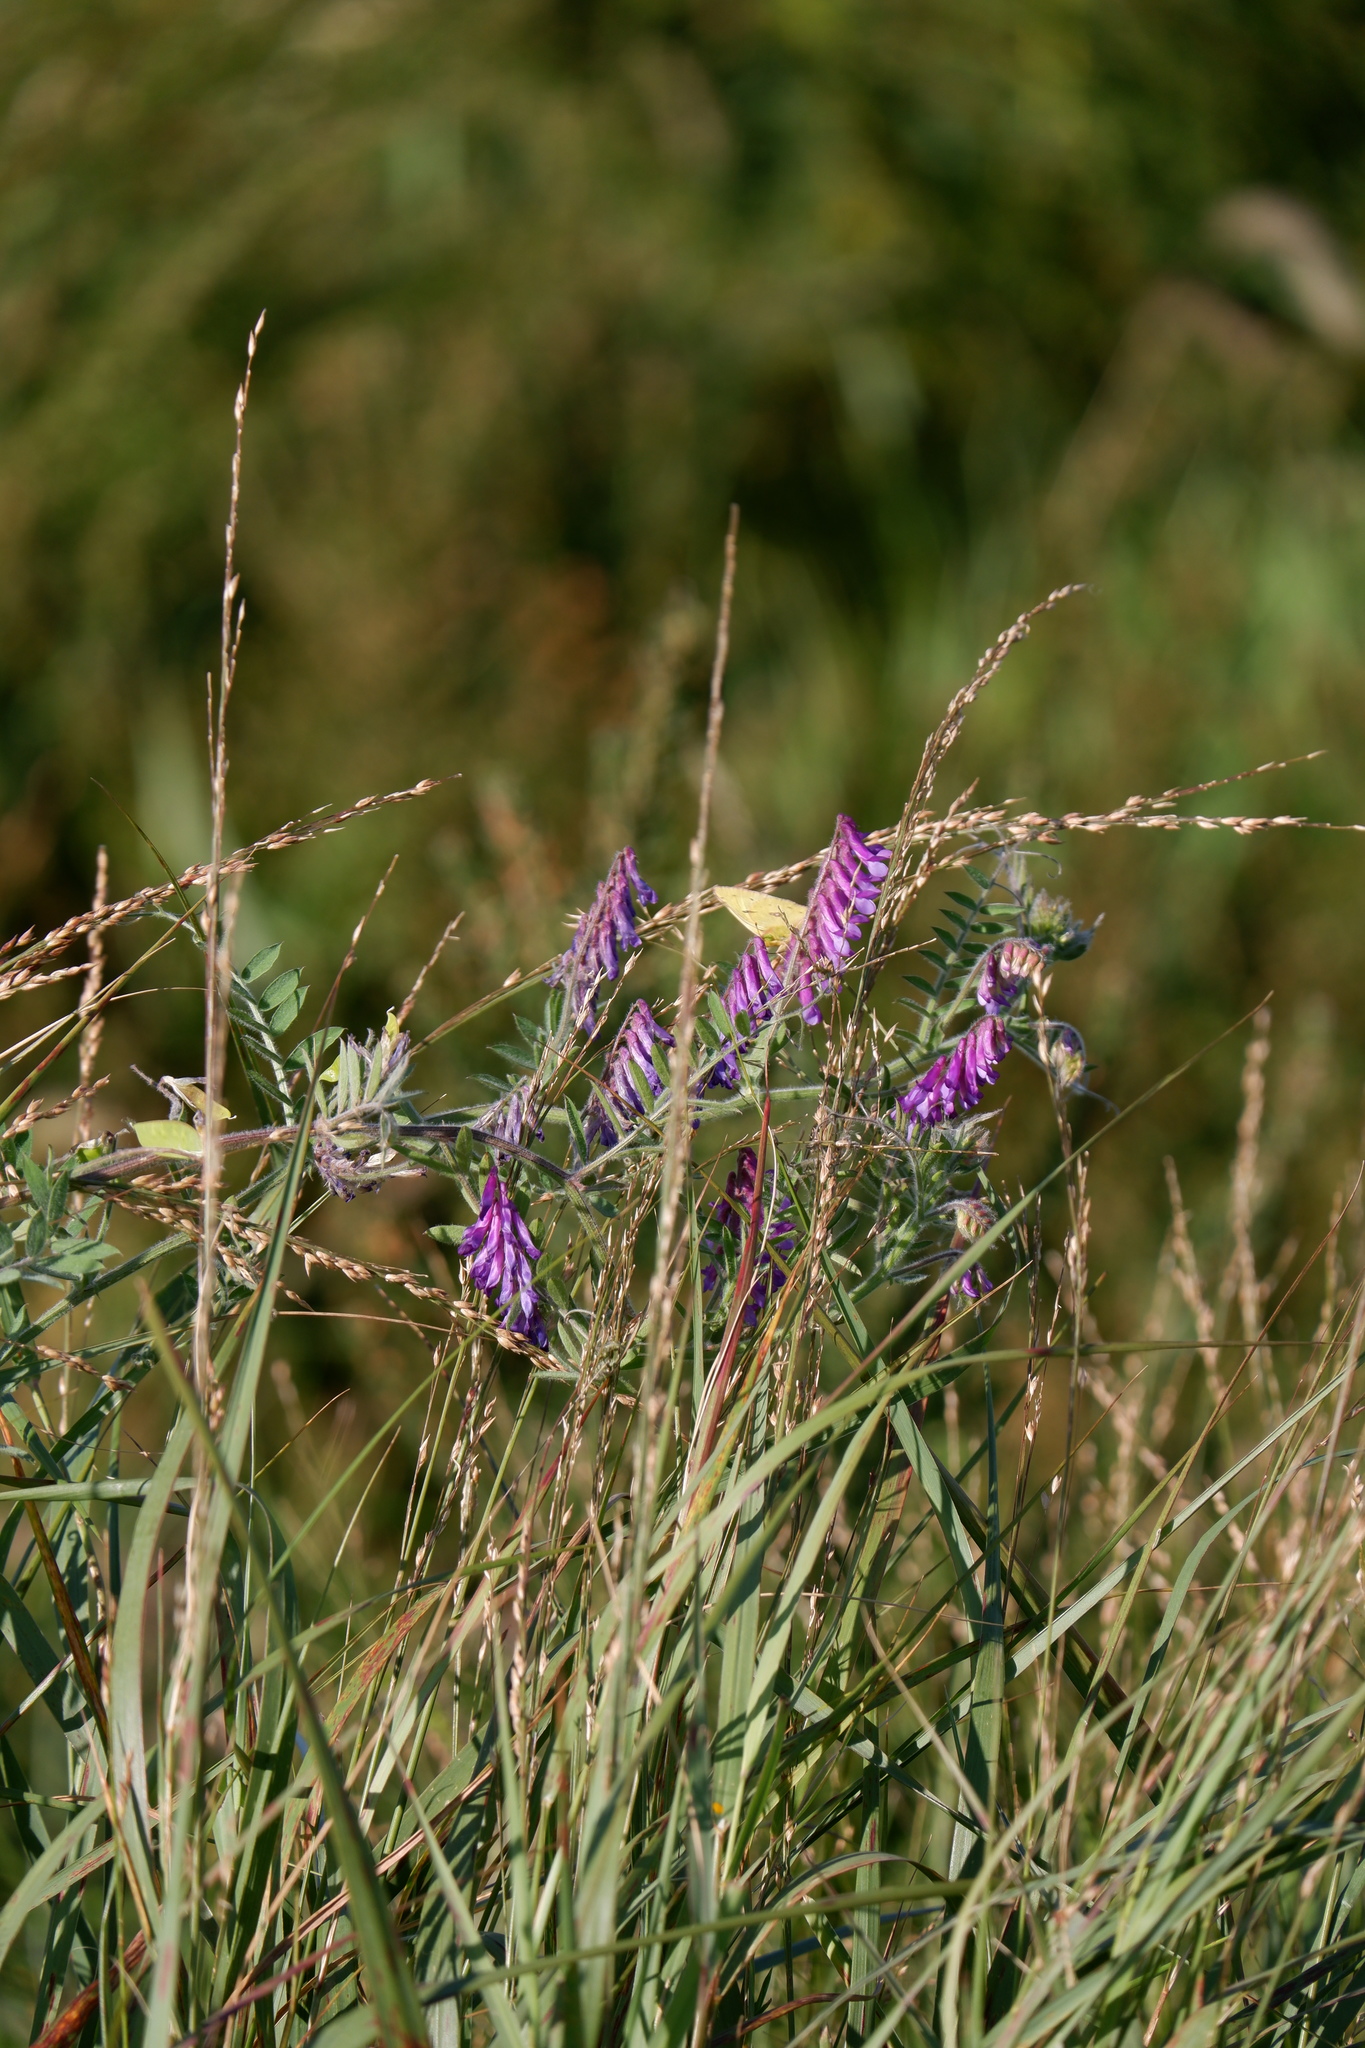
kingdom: Plantae
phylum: Tracheophyta
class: Magnoliopsida
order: Fabales
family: Fabaceae
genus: Vicia
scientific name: Vicia villosa
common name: Fodder vetch
